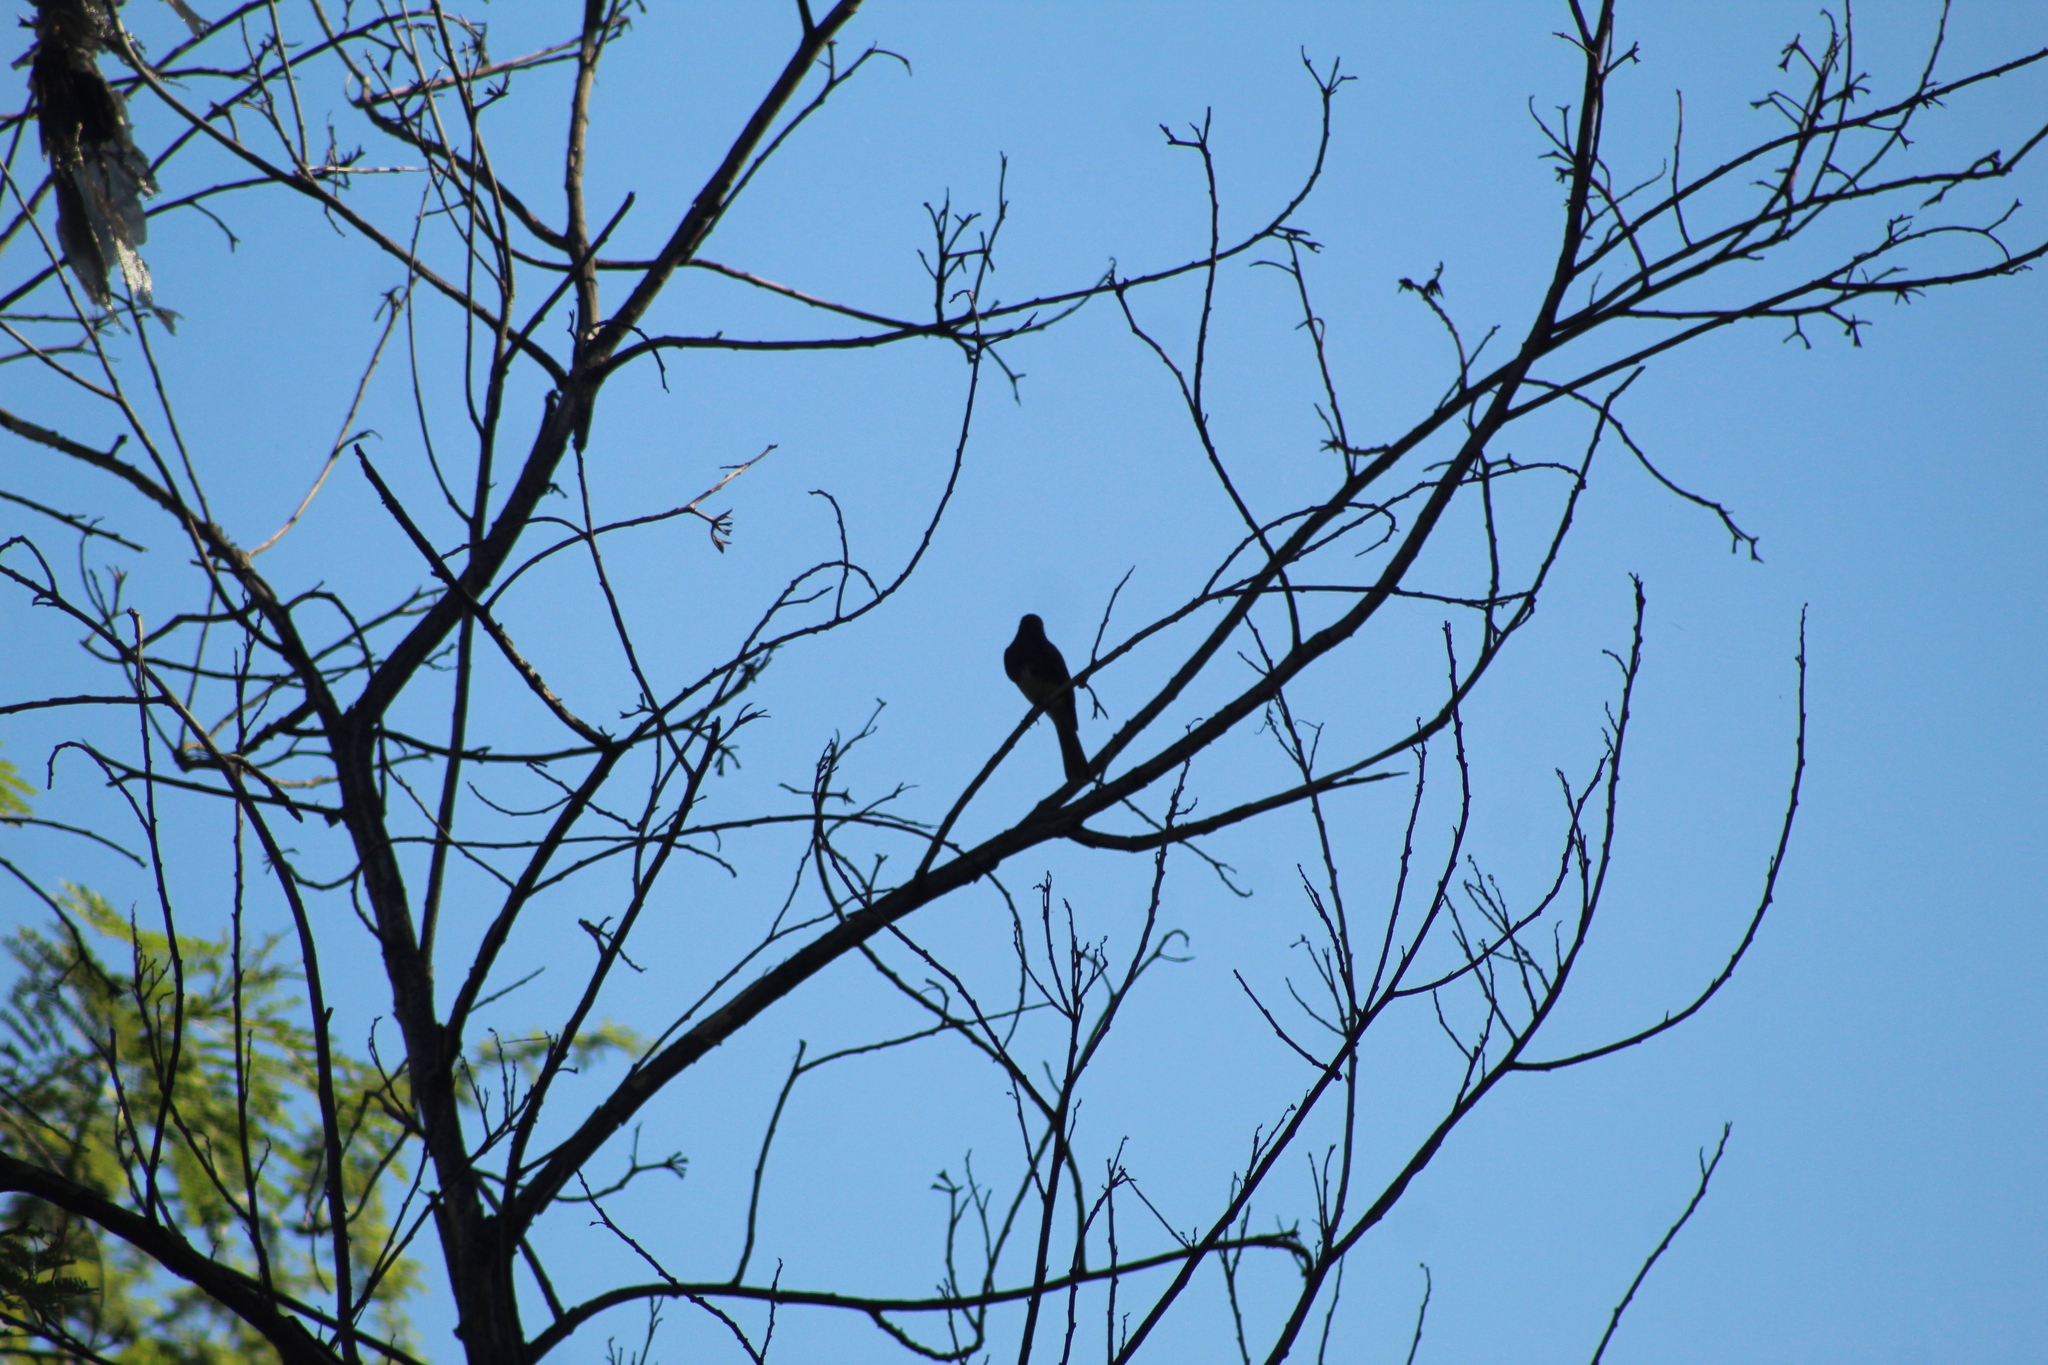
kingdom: Animalia
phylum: Chordata
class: Aves
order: Passeriformes
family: Tyrannidae
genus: Sayornis
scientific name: Sayornis nigricans
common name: Black phoebe
